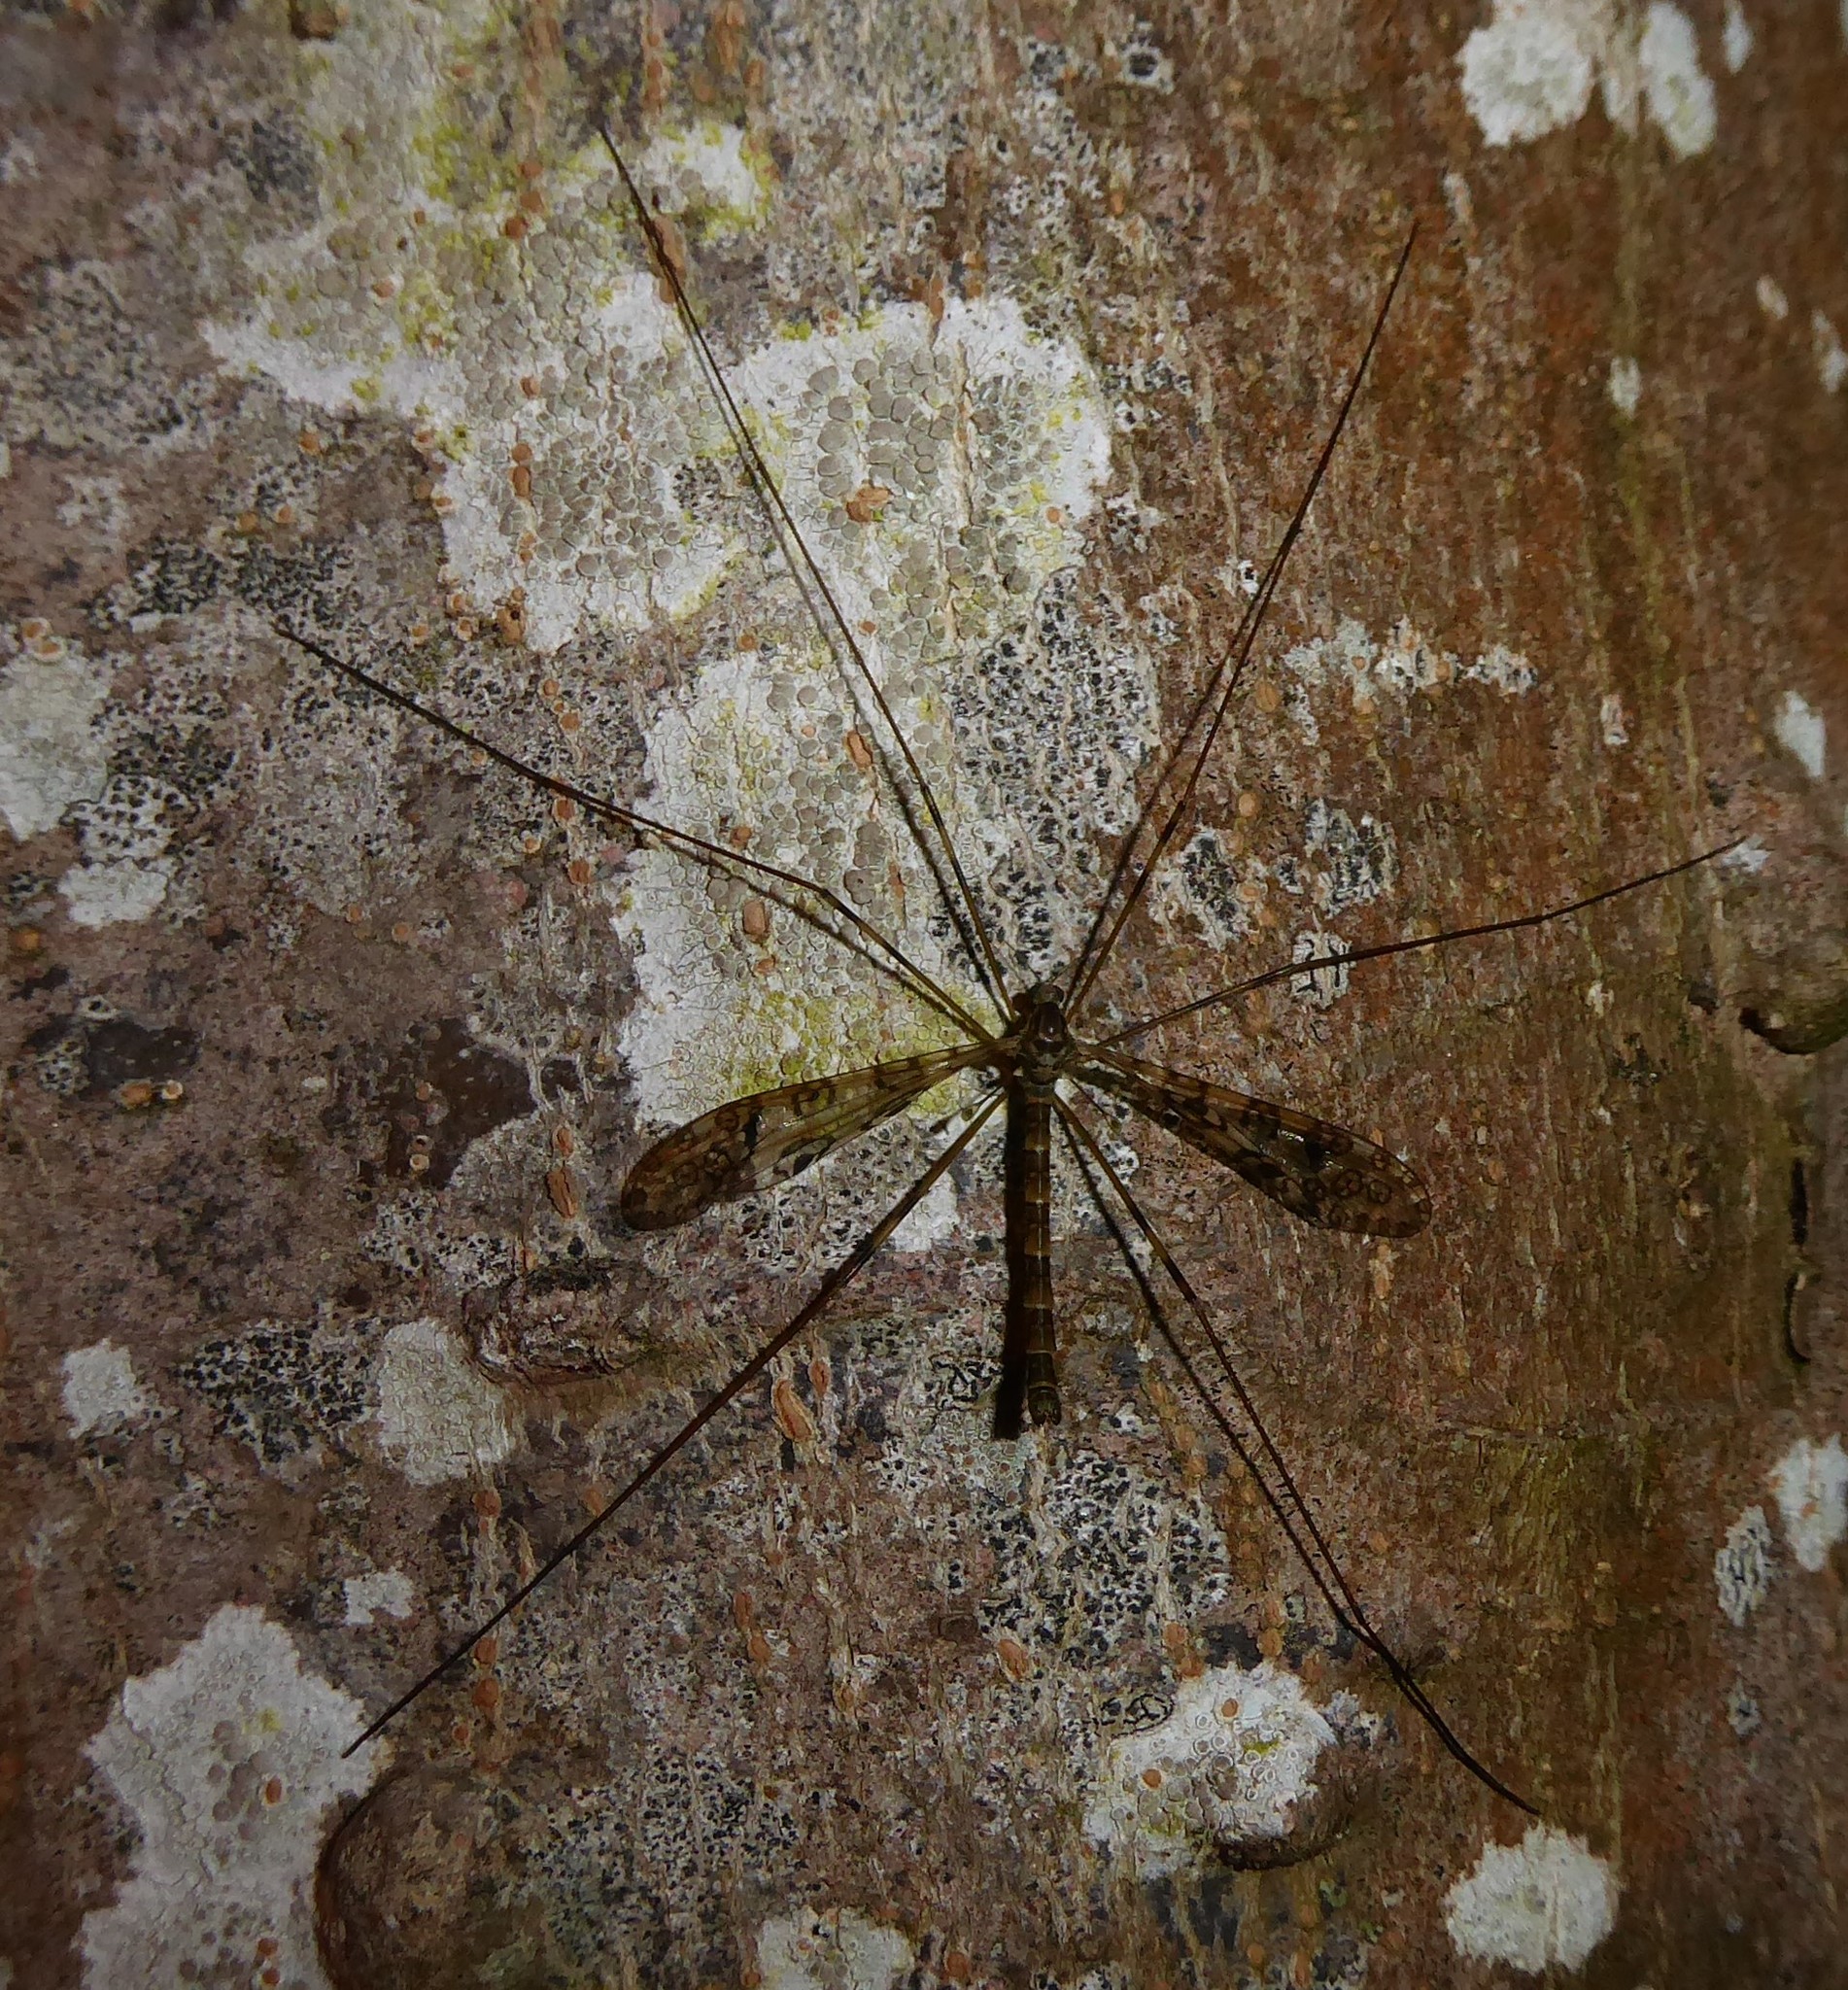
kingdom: Animalia
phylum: Arthropoda
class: Insecta
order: Diptera
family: Limoniidae
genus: Austrolimnophila
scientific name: Austrolimnophila argus
